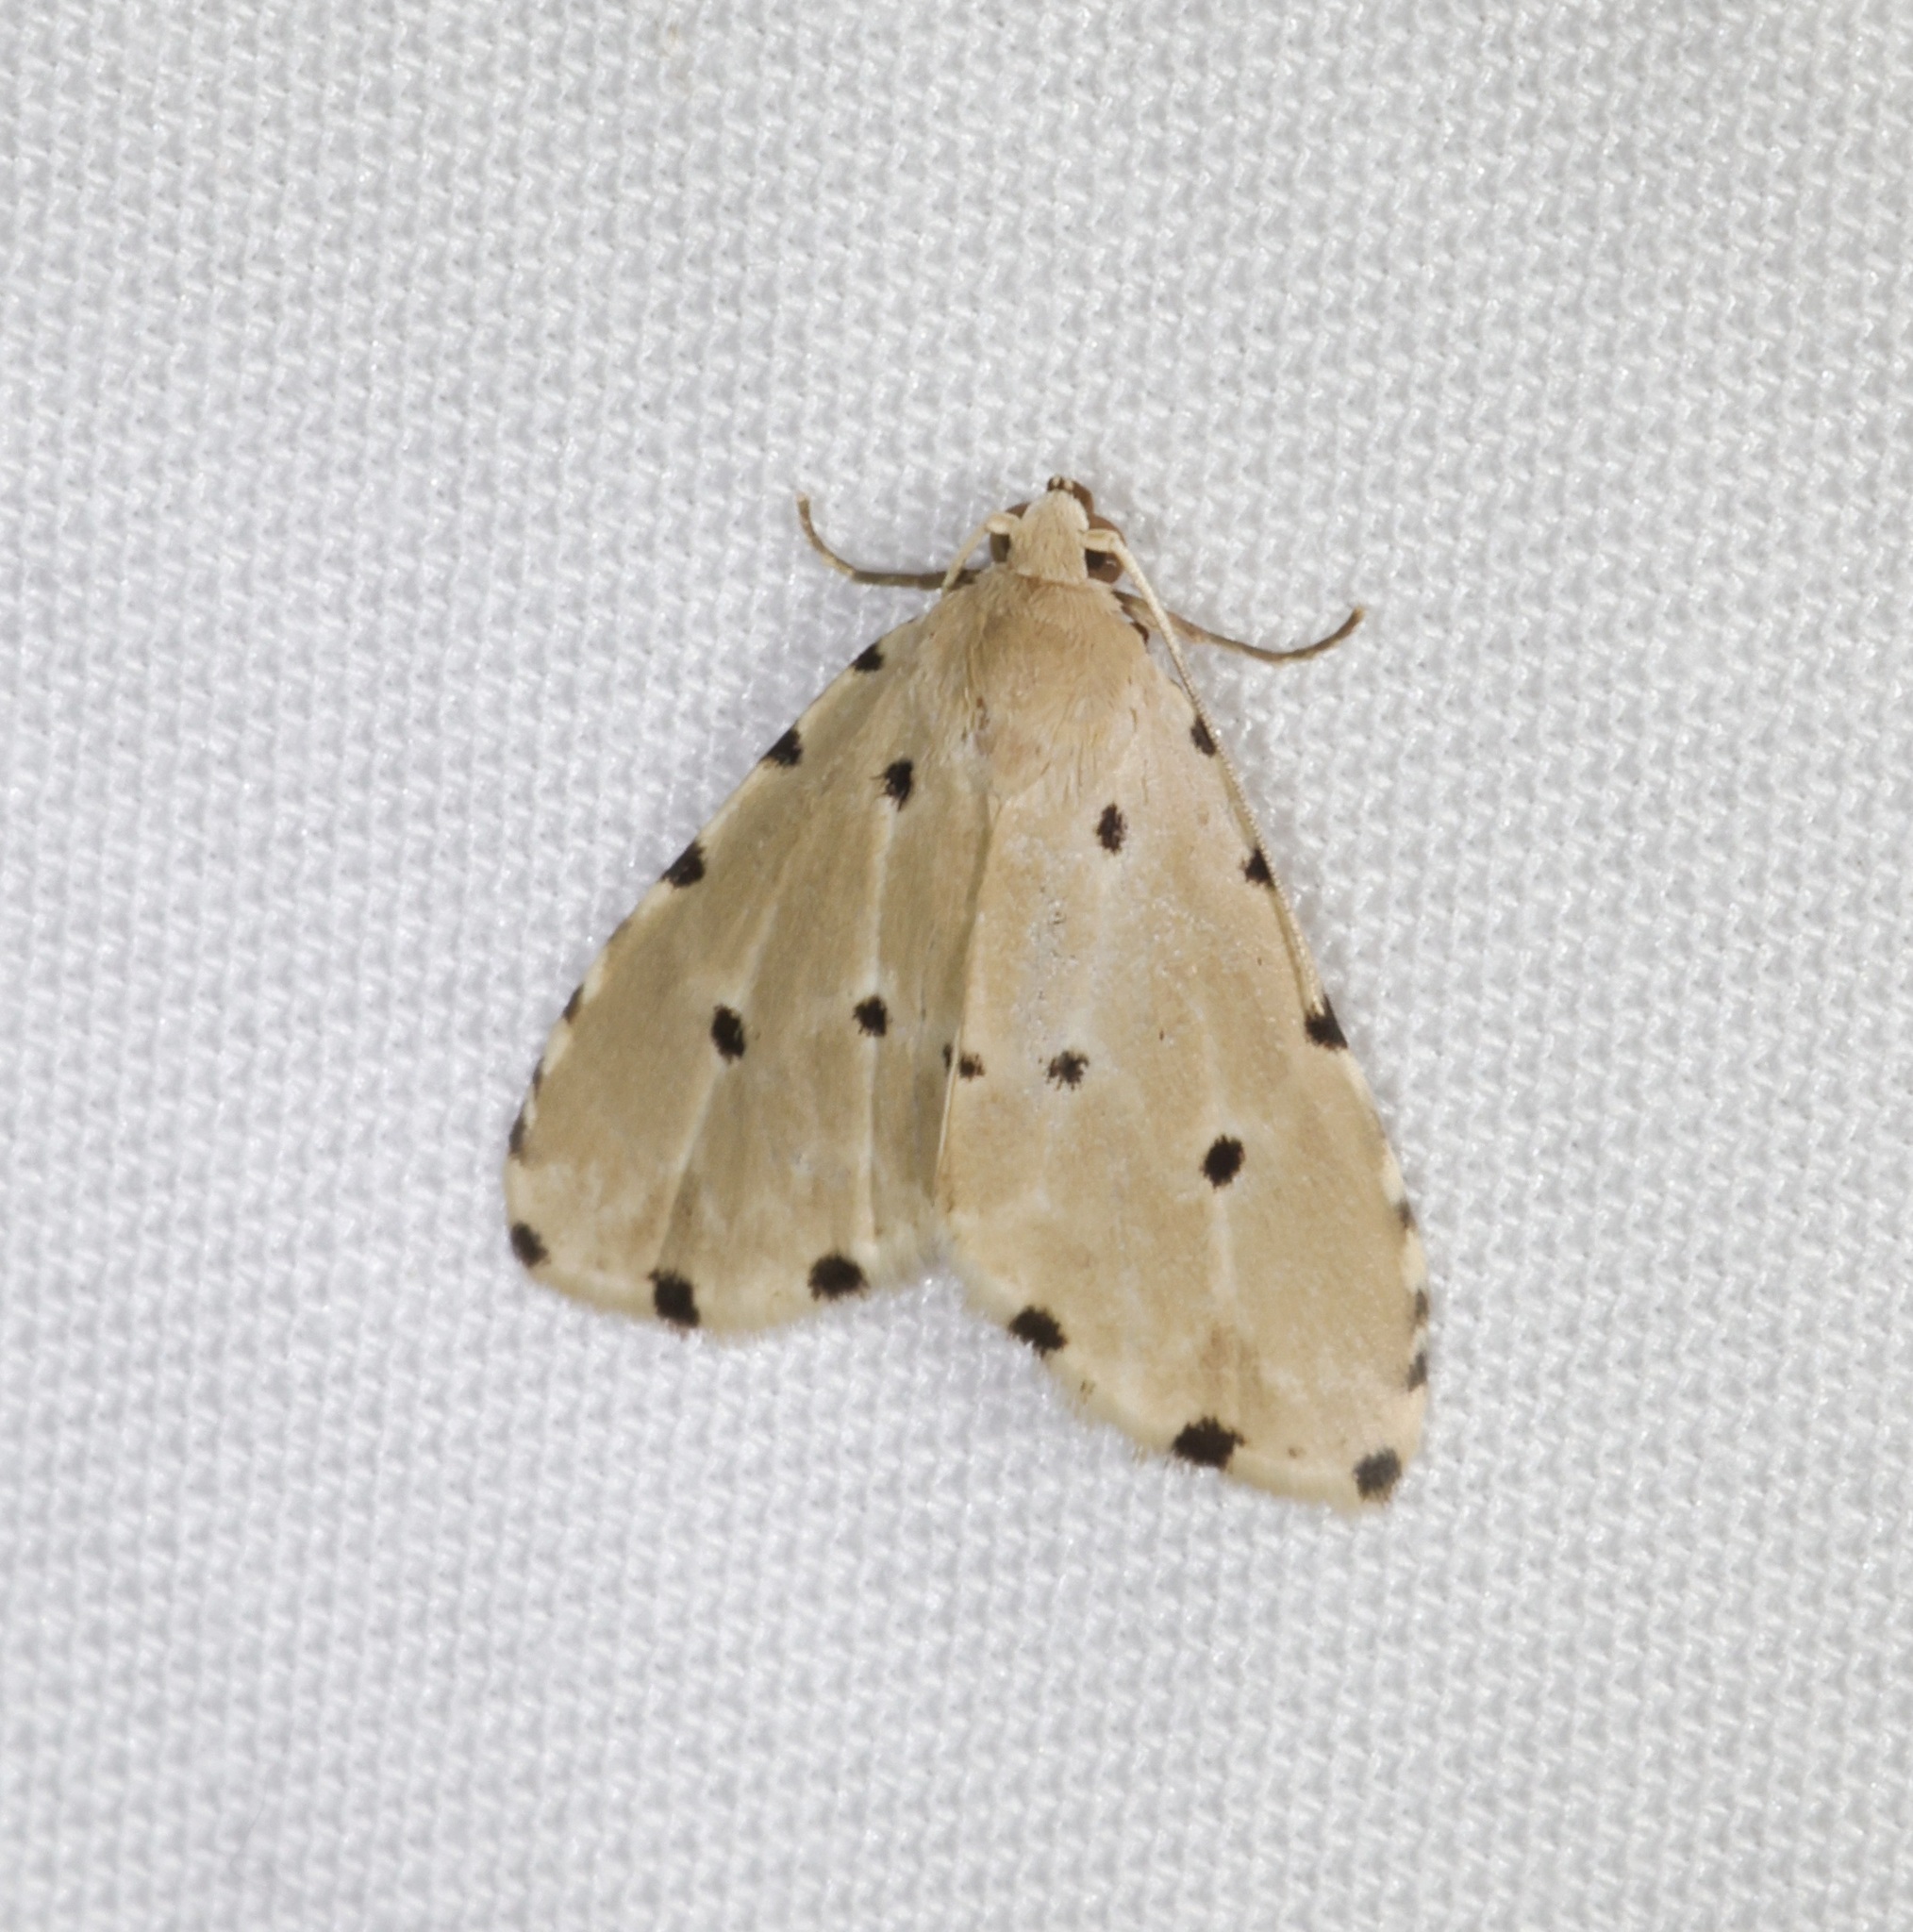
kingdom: Animalia
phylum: Arthropoda
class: Insecta
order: Lepidoptera
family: Noctuidae
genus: Metaemene
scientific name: Metaemene atrigutta
